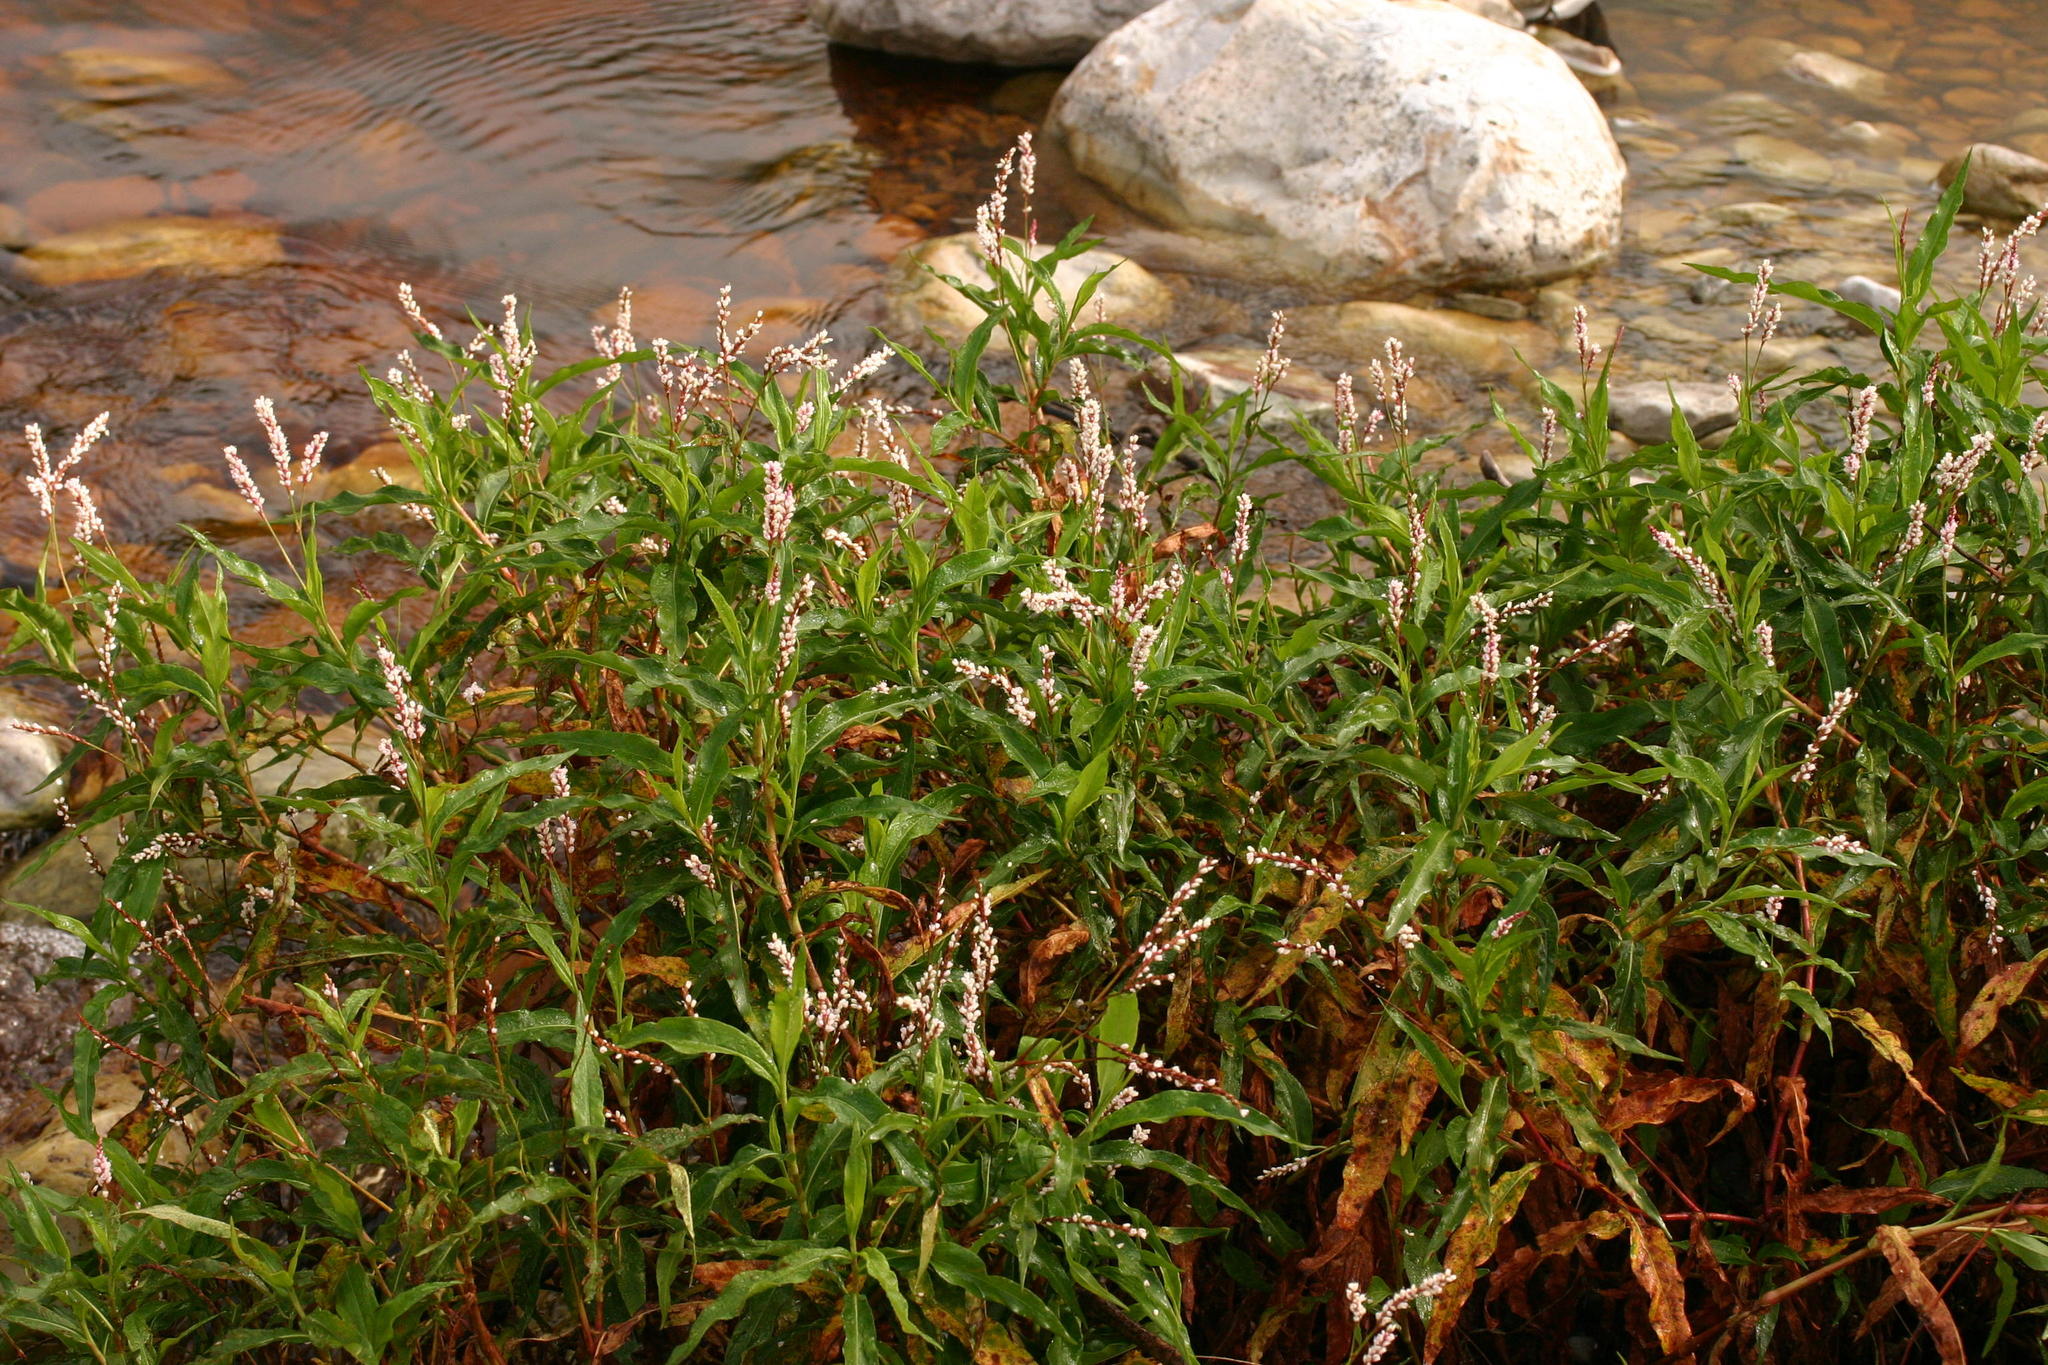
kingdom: Plantae
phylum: Tracheophyta
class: Magnoliopsida
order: Caryophyllales
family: Polygonaceae
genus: Persicaria
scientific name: Persicaria madagascariensis
